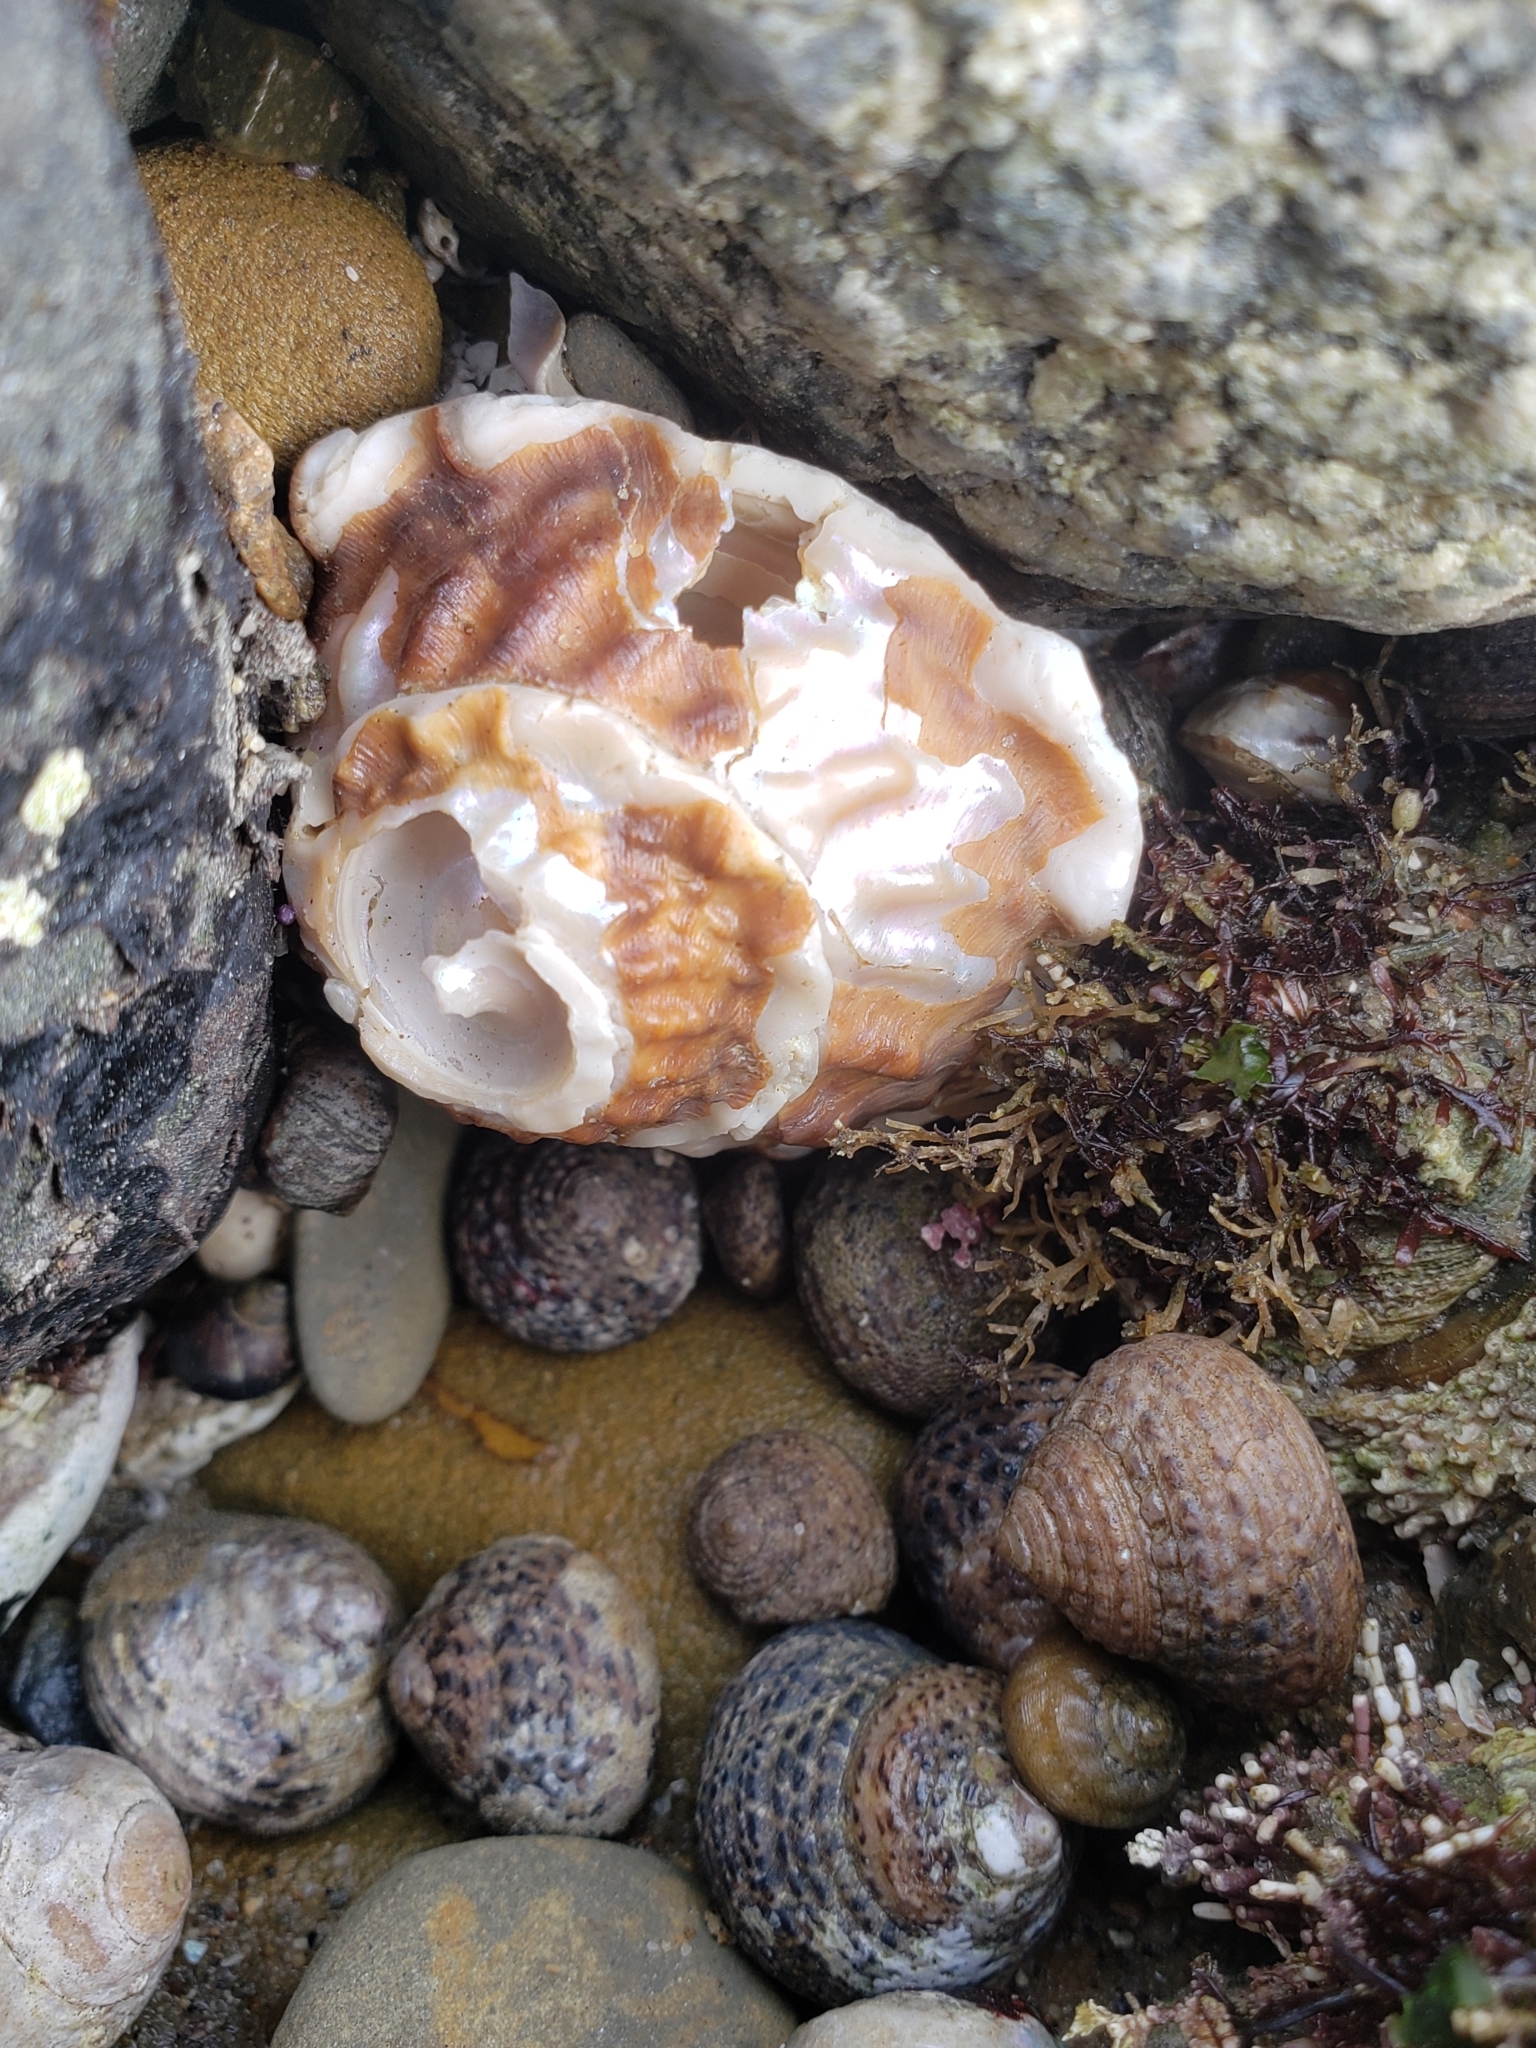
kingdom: Animalia
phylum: Mollusca
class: Gastropoda
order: Trochida
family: Turbinidae
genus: Megastraea
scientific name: Megastraea undosa
